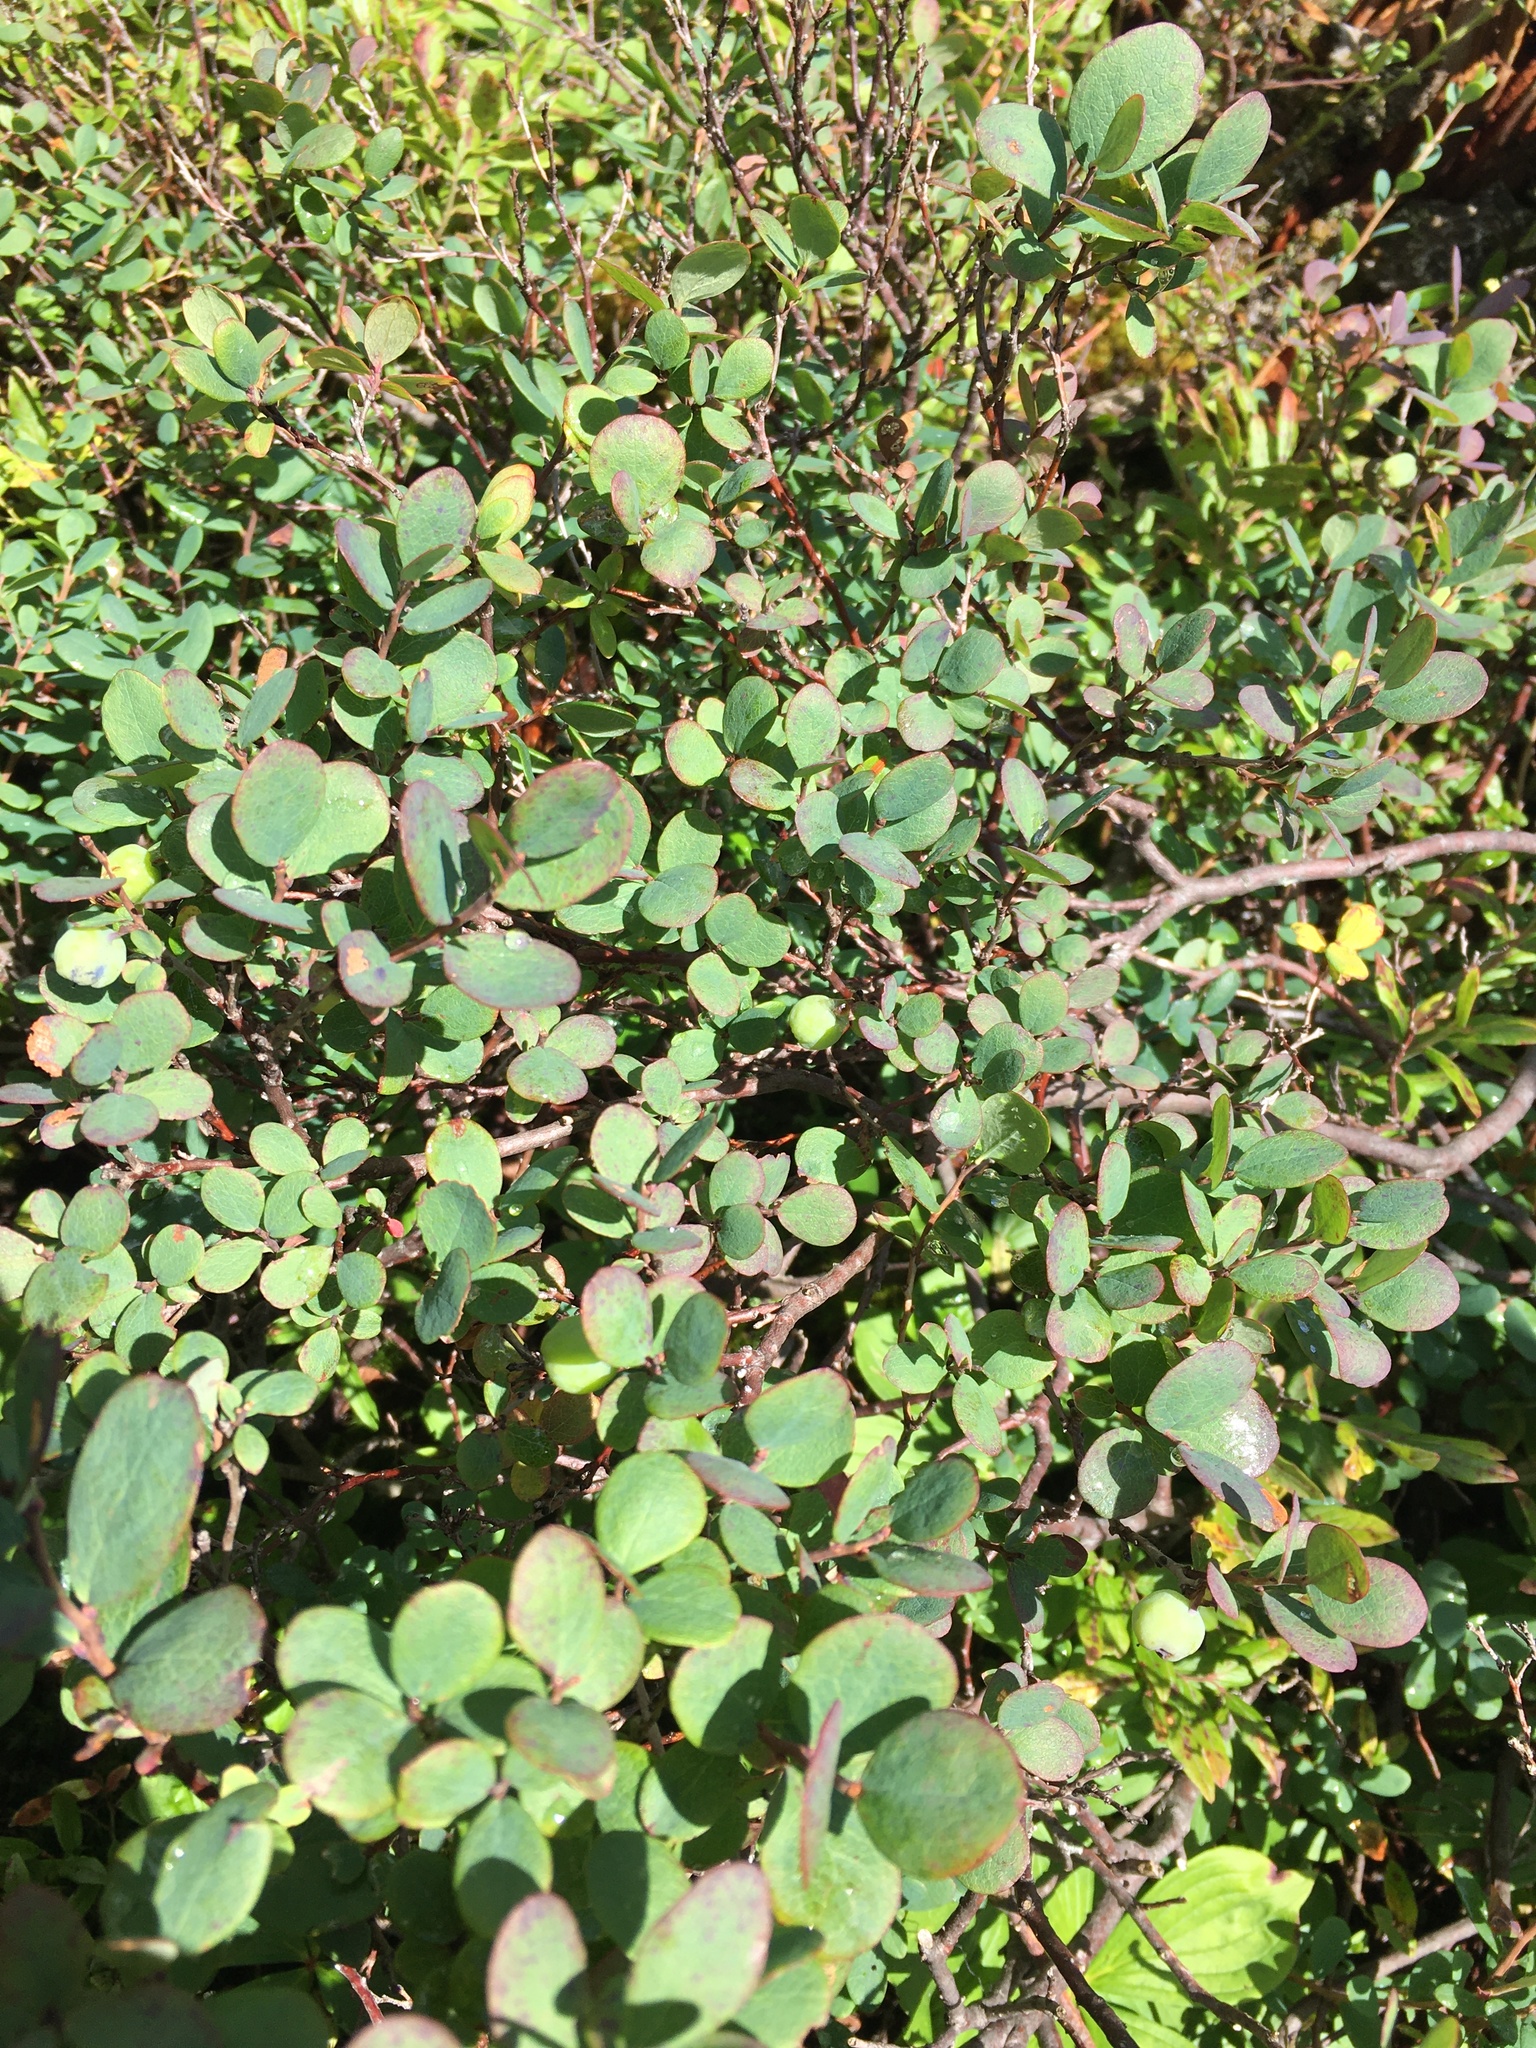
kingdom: Plantae
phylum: Tracheophyta
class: Magnoliopsida
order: Ericales
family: Ericaceae
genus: Vaccinium
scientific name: Vaccinium uliginosum
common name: Bog bilberry
